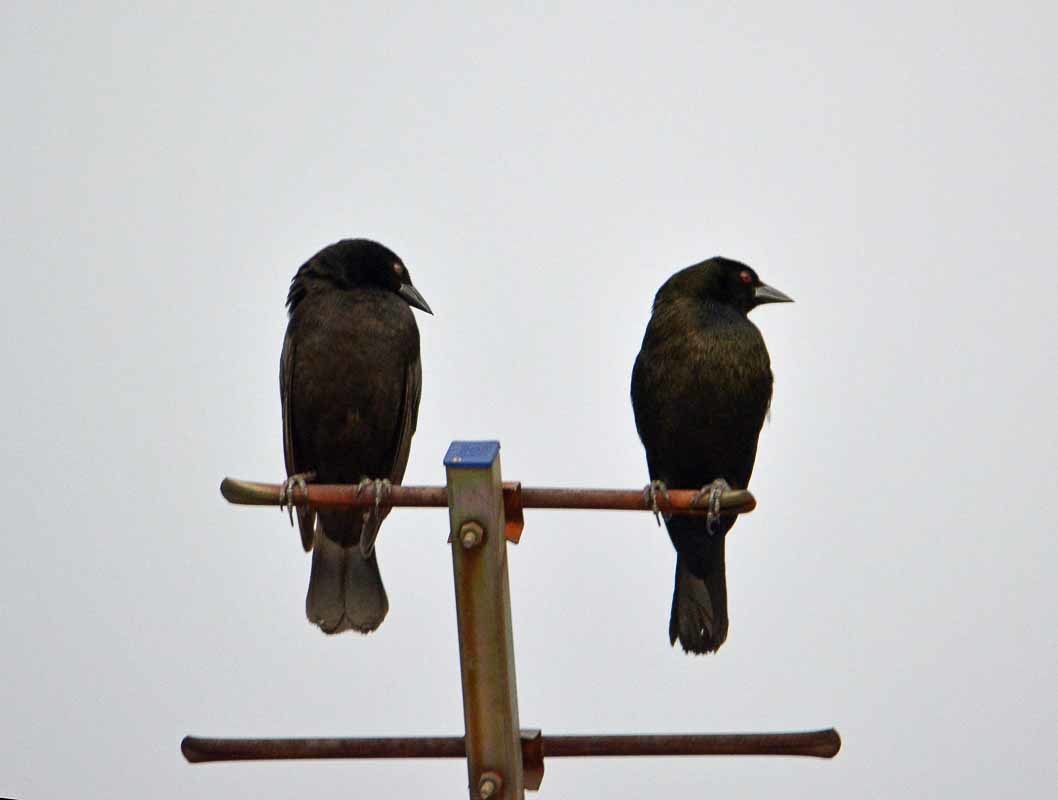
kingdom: Animalia
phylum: Chordata
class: Aves
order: Passeriformes
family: Icteridae
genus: Molothrus
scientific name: Molothrus aeneus
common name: Bronzed cowbird
